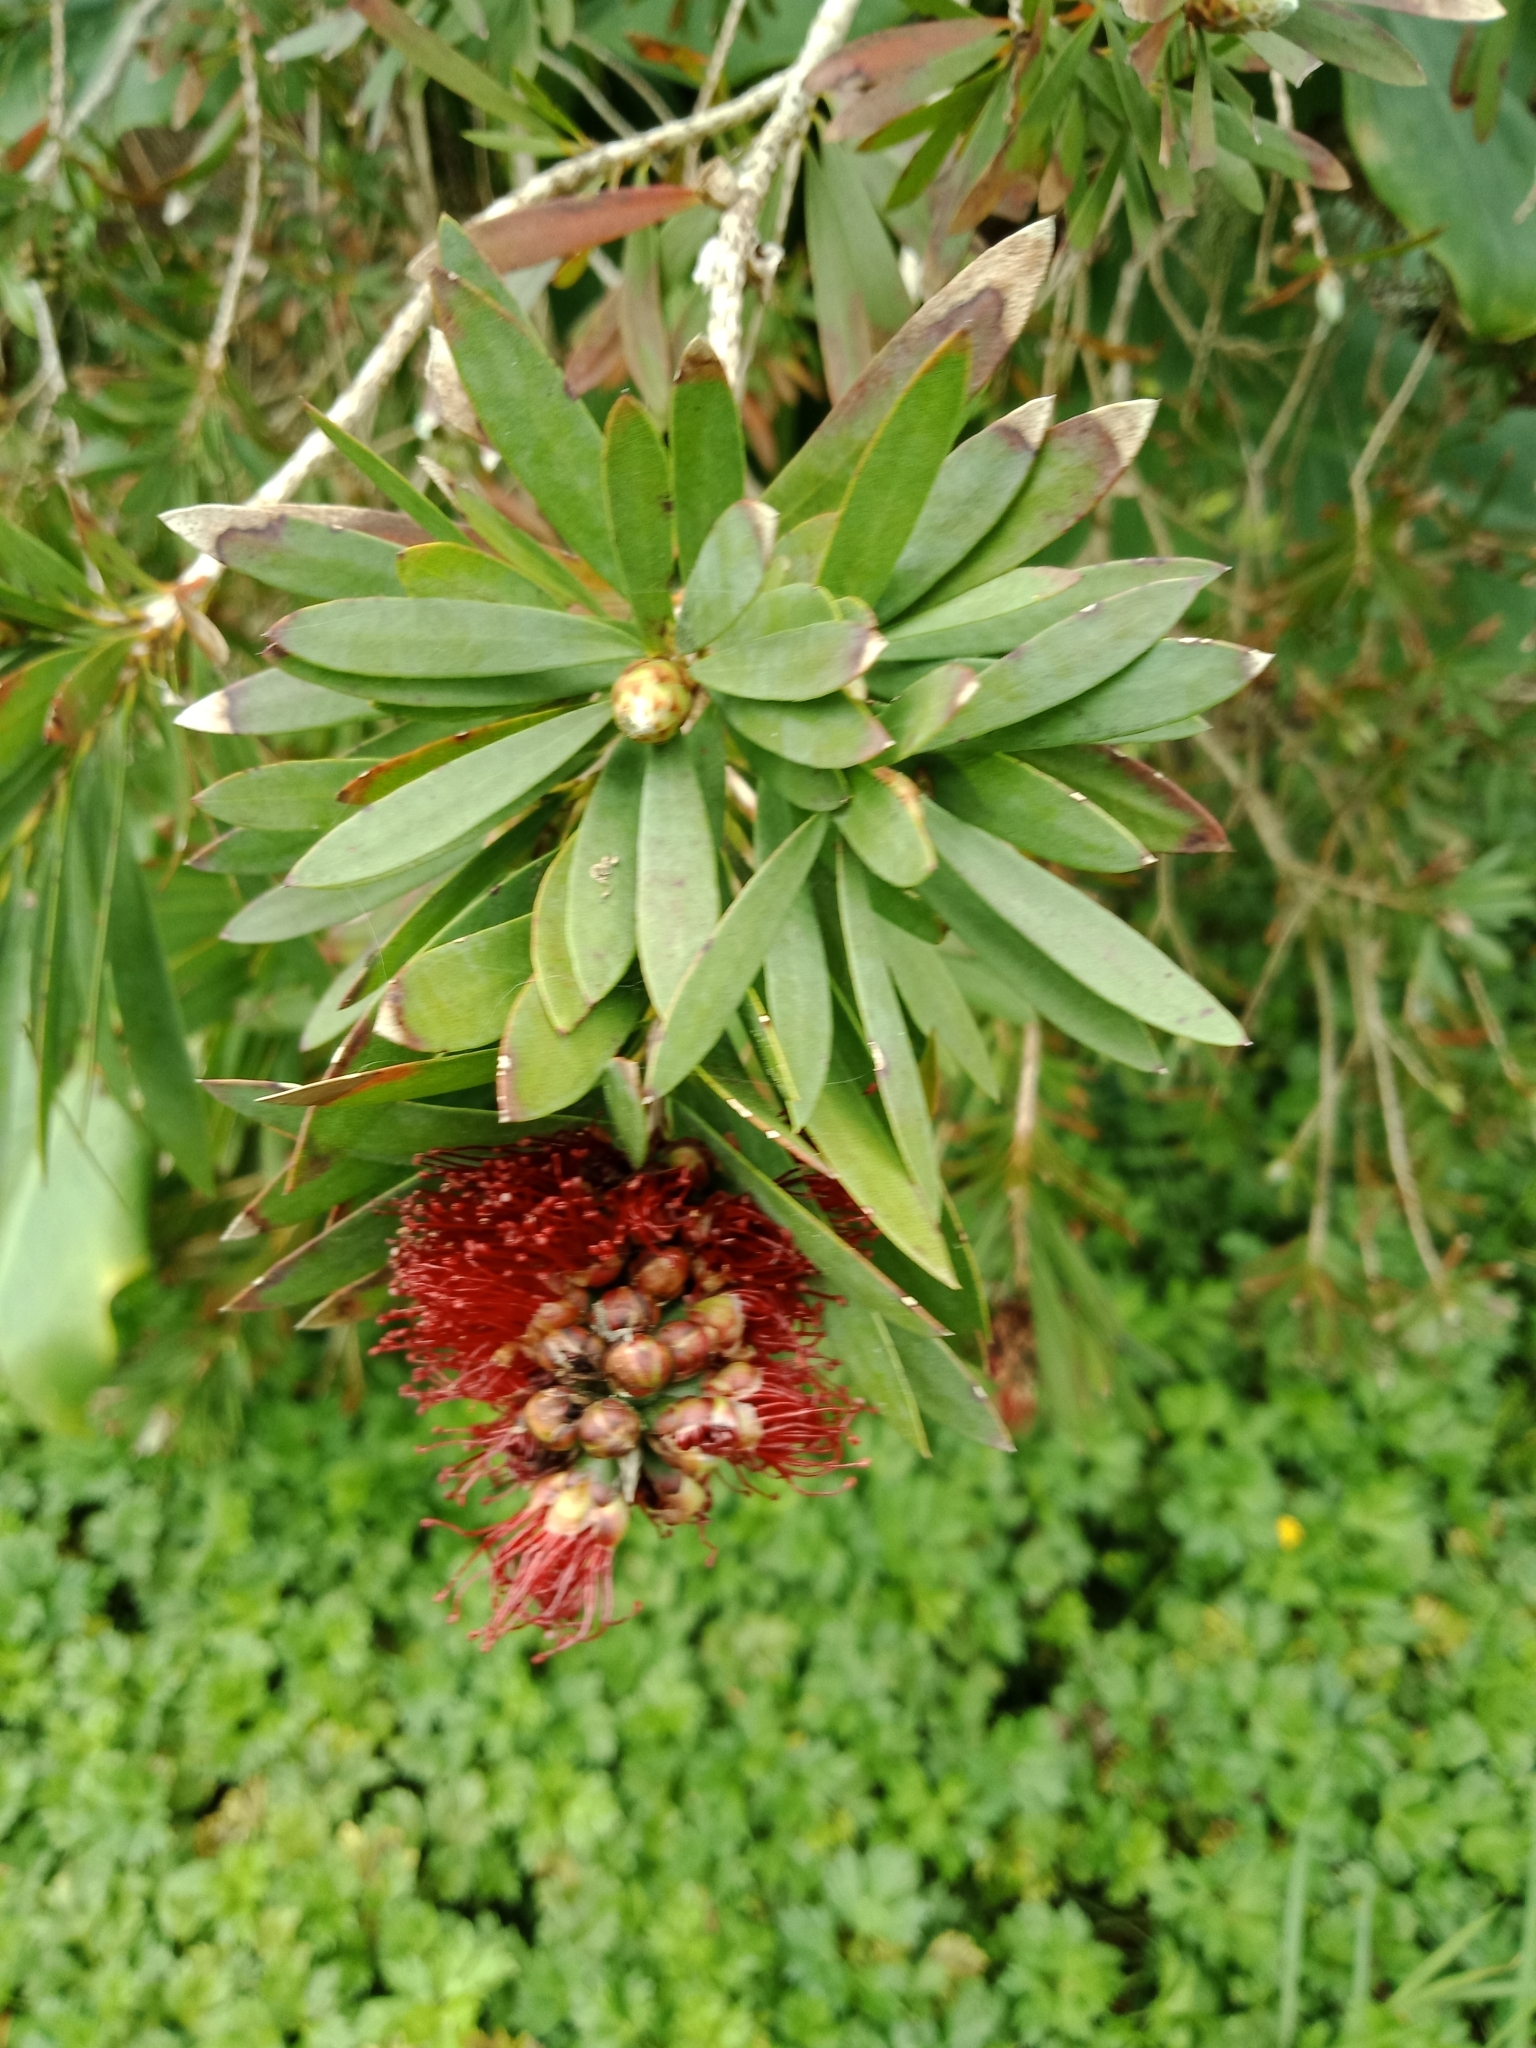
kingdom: Plantae
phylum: Tracheophyta
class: Magnoliopsida
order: Myrtales
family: Myrtaceae
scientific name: Myrtaceae
